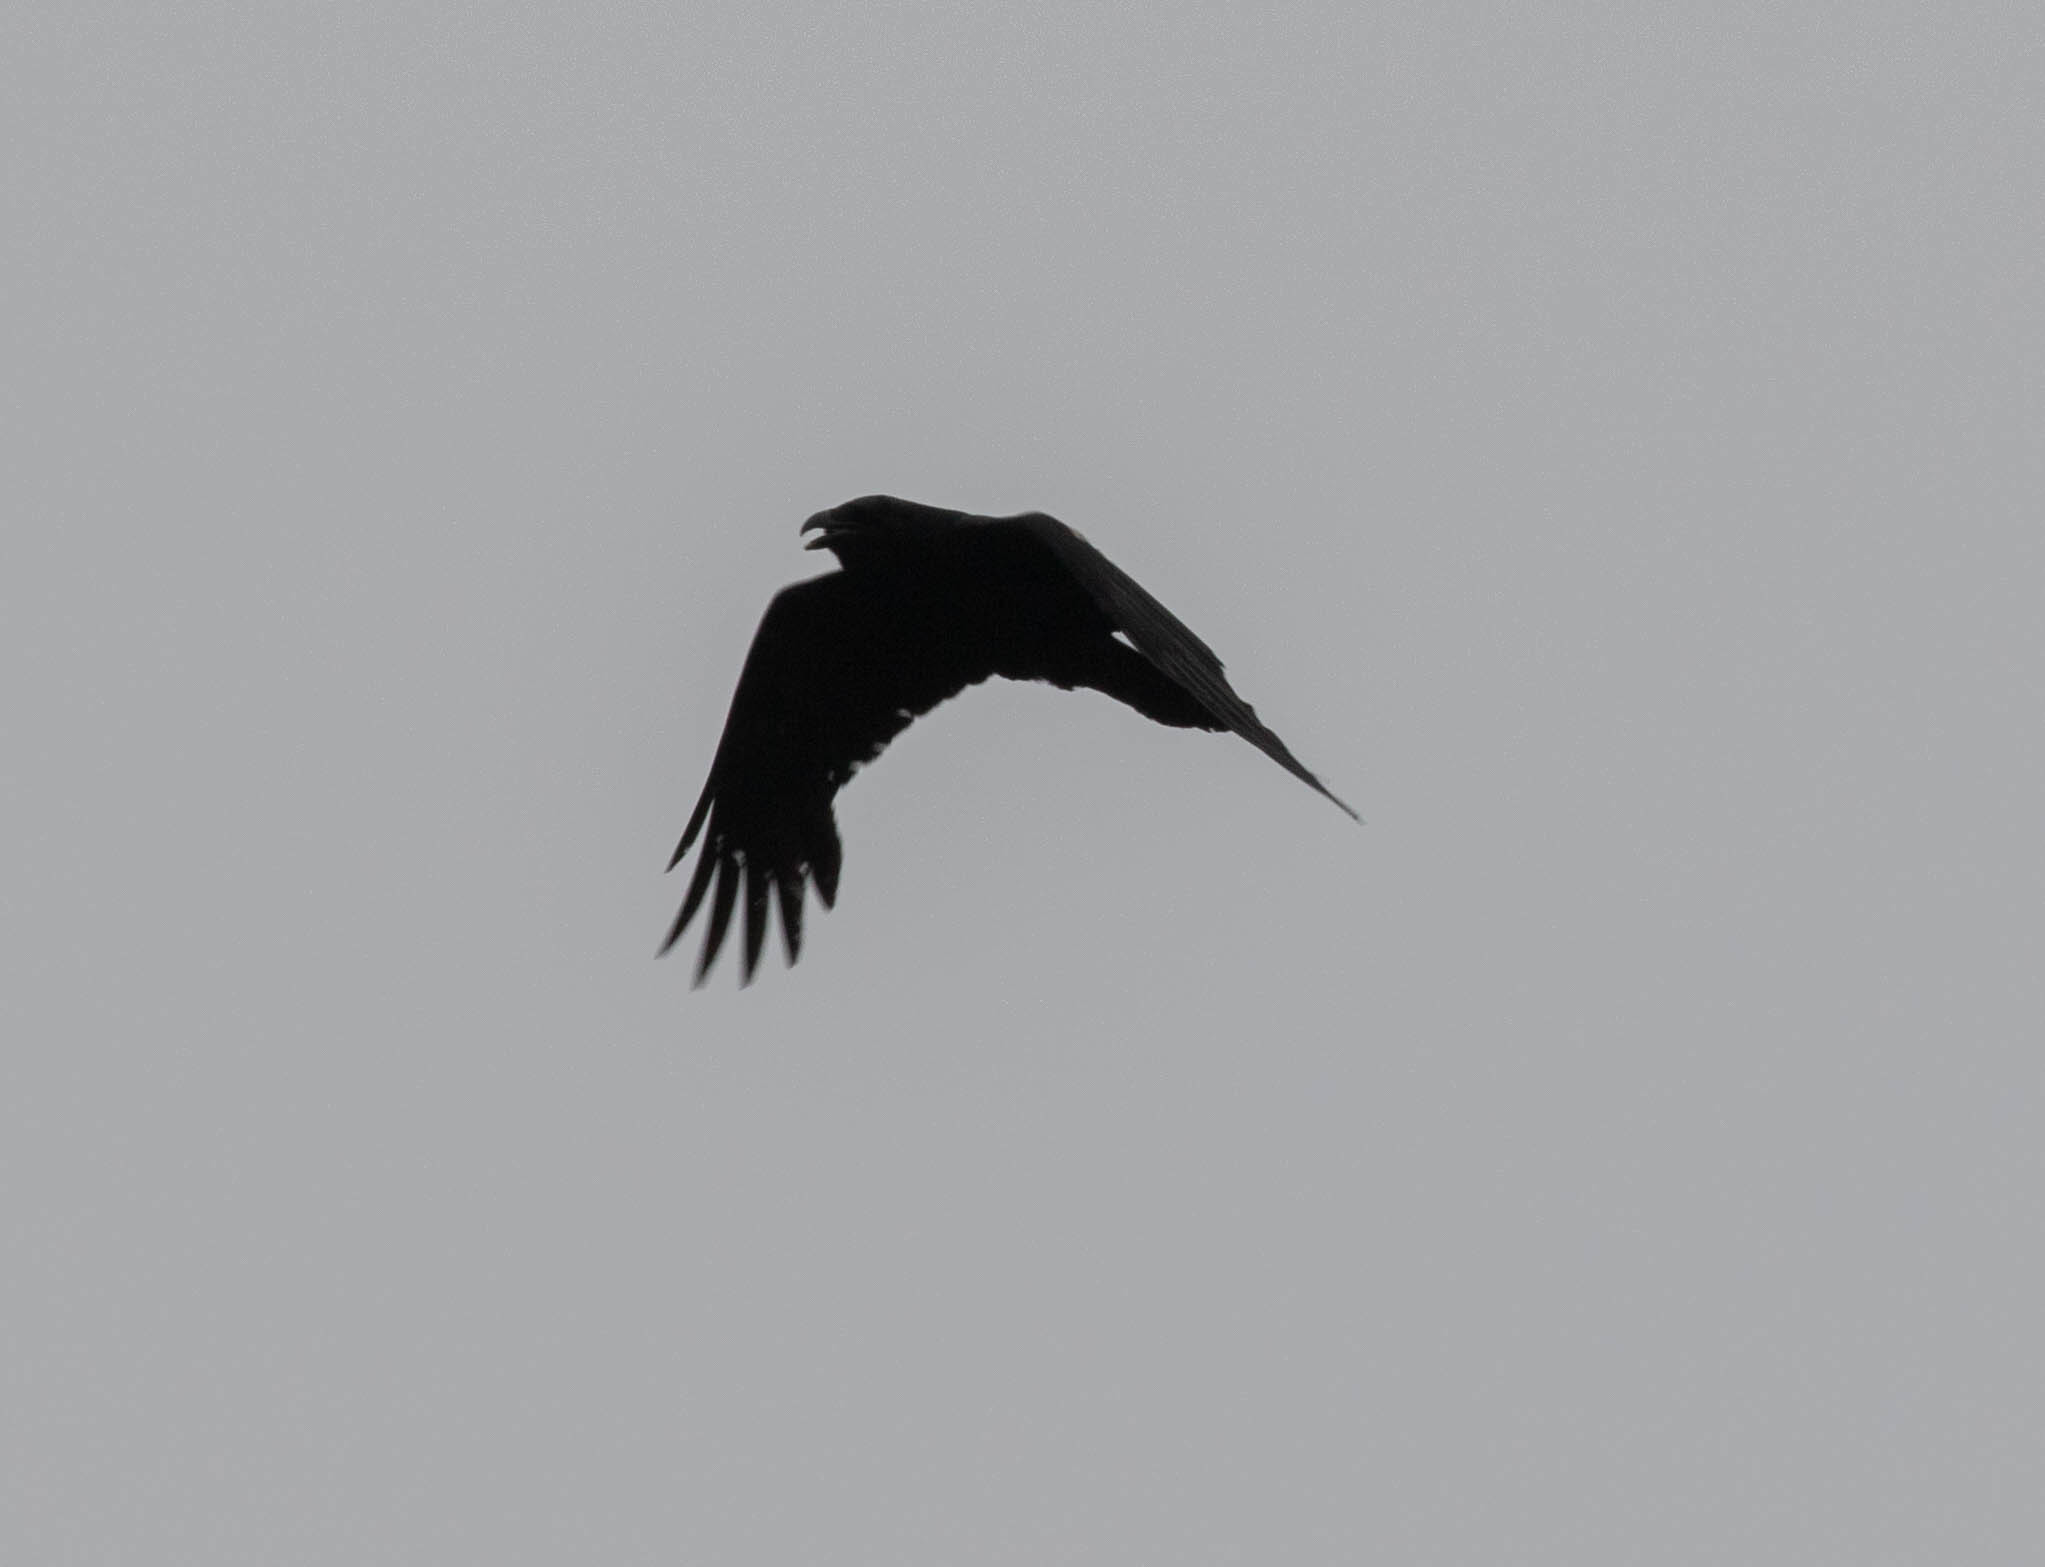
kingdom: Animalia
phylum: Chordata
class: Aves
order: Passeriformes
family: Corvidae
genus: Corvus
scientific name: Corvus corax
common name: Common raven
